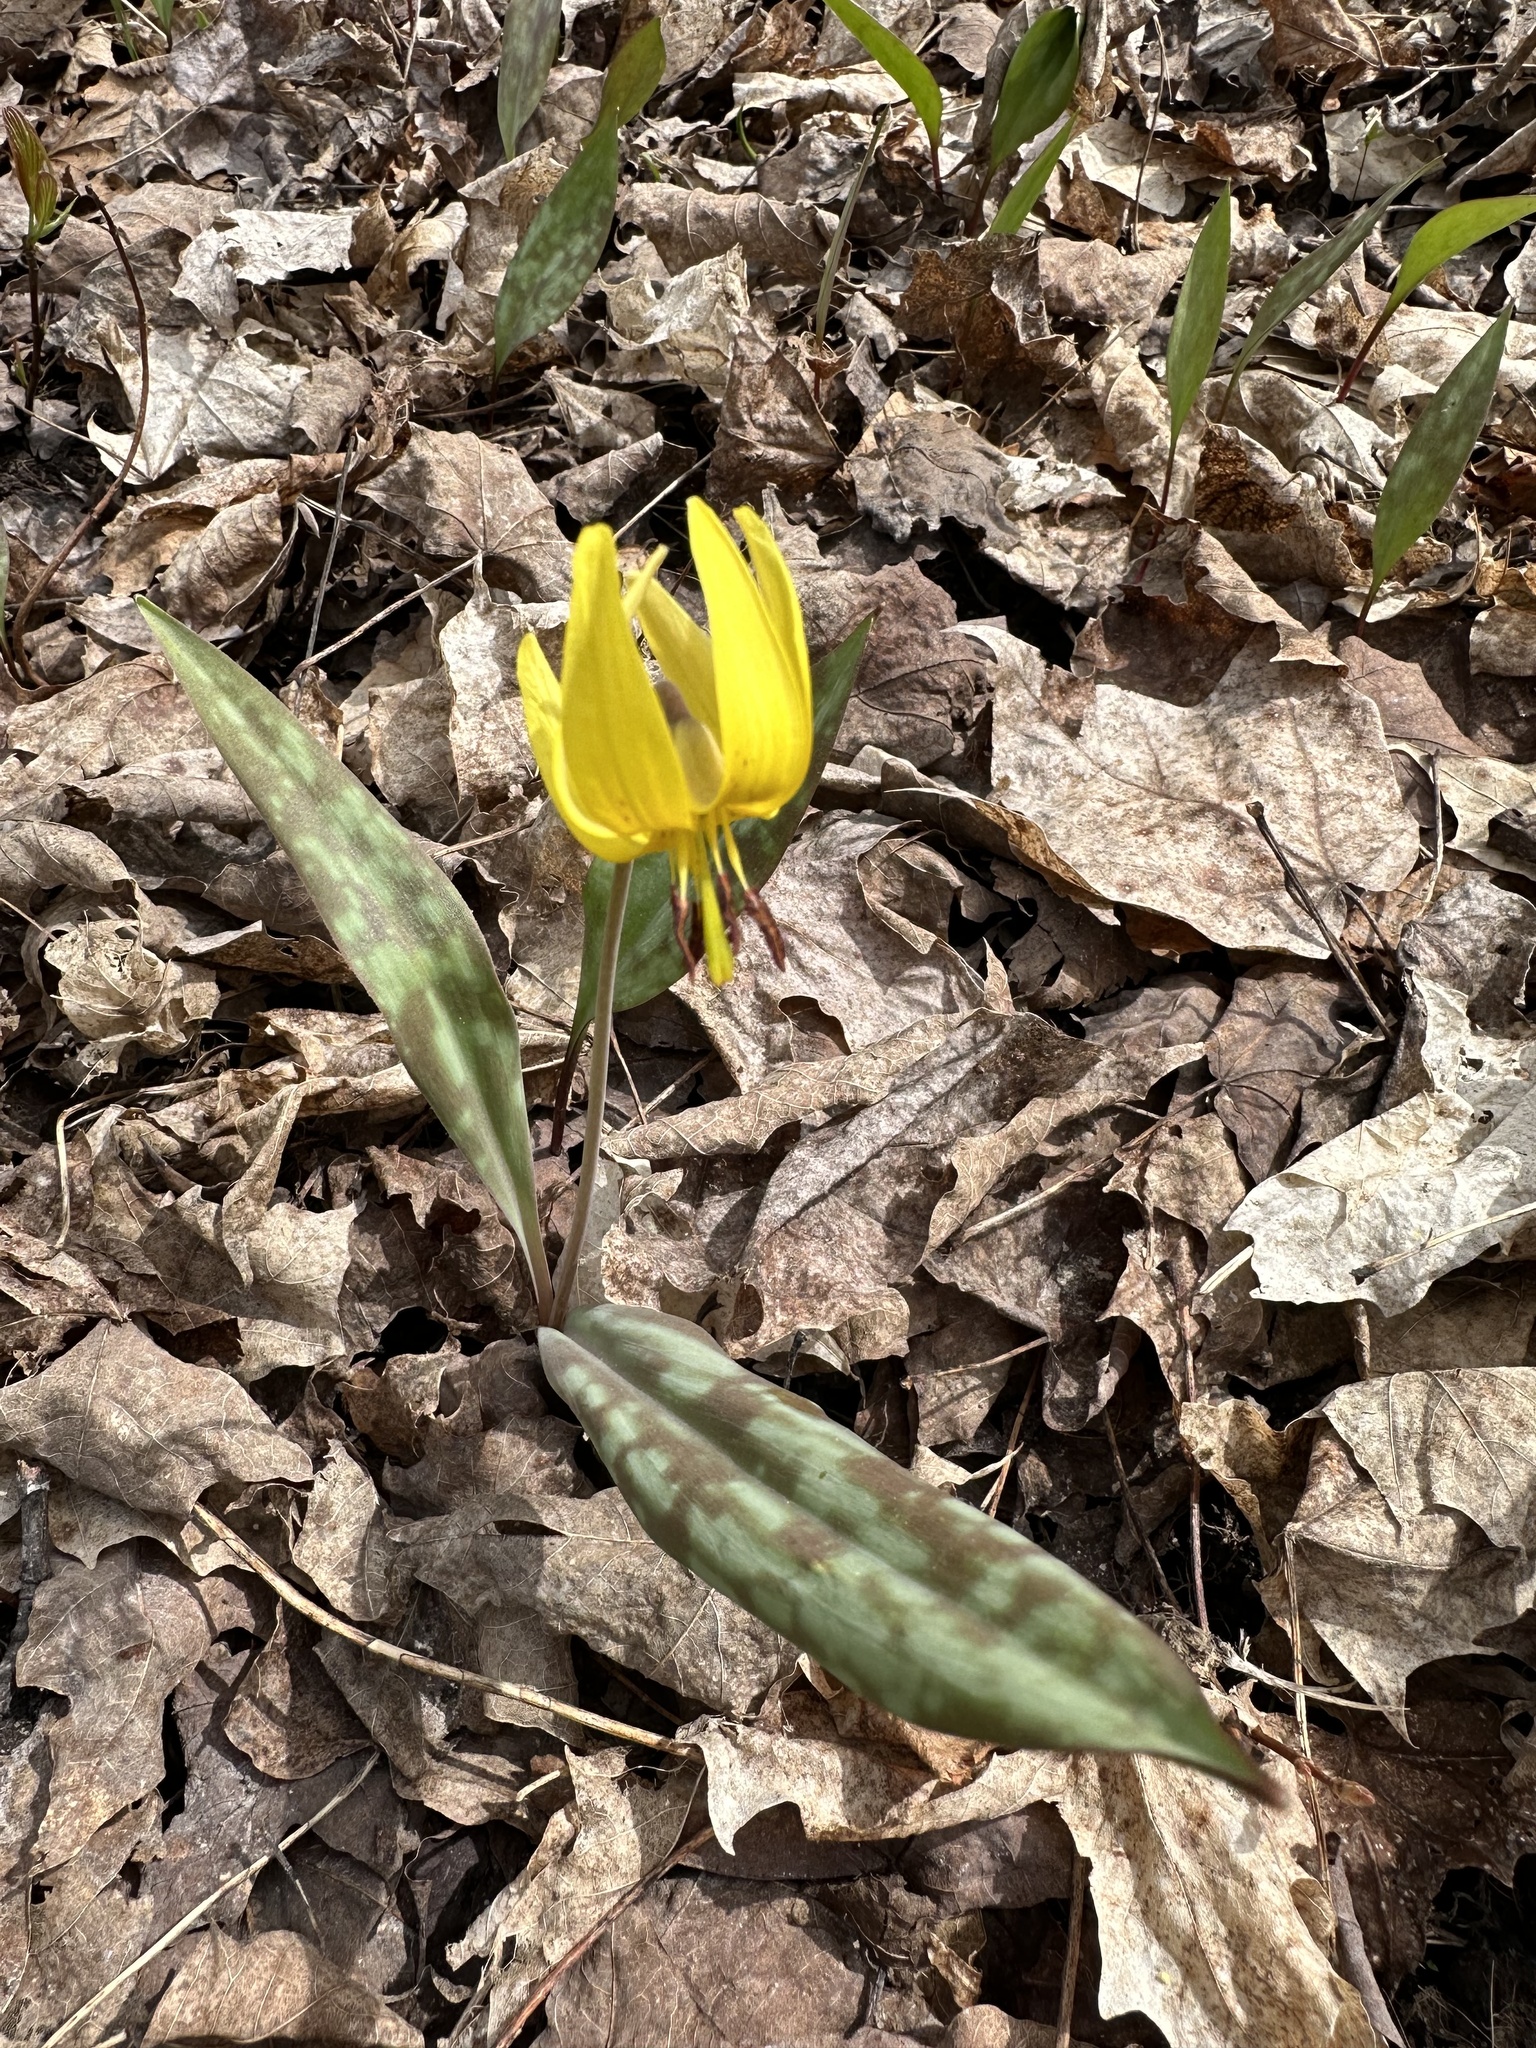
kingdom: Plantae
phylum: Tracheophyta
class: Liliopsida
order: Liliales
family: Liliaceae
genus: Erythronium
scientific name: Erythronium americanum
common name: Yellow adder's-tongue
